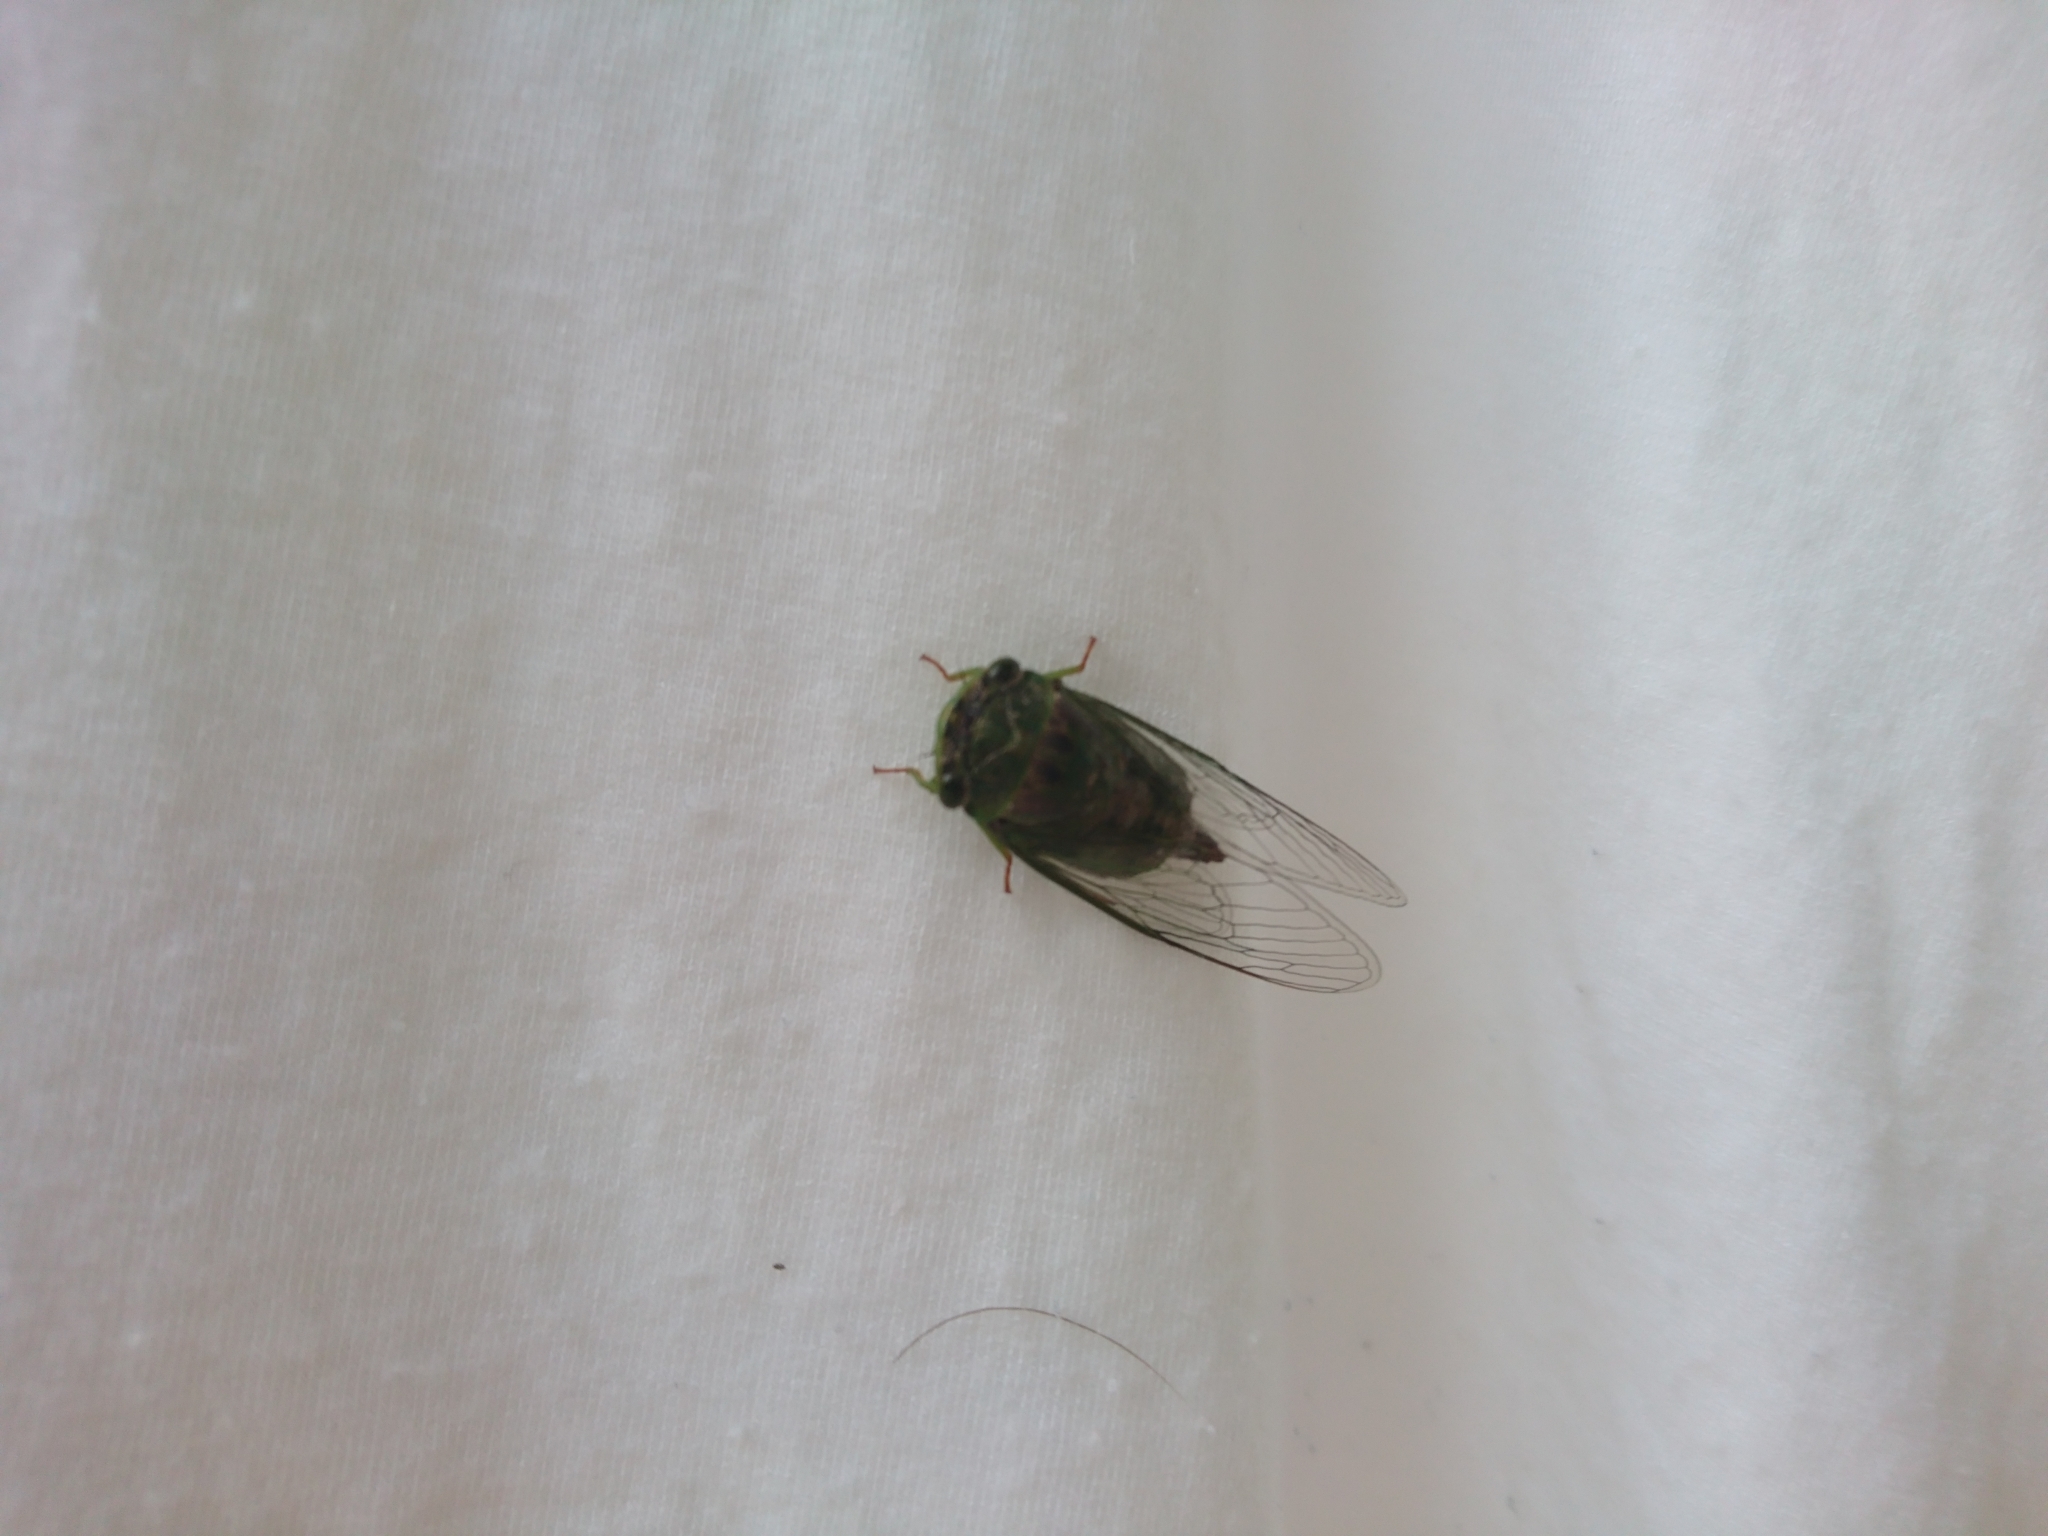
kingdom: Animalia
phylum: Arthropoda
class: Insecta
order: Hemiptera
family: Cicadidae
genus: Acanthoventris
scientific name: Acanthoventris drewseni
